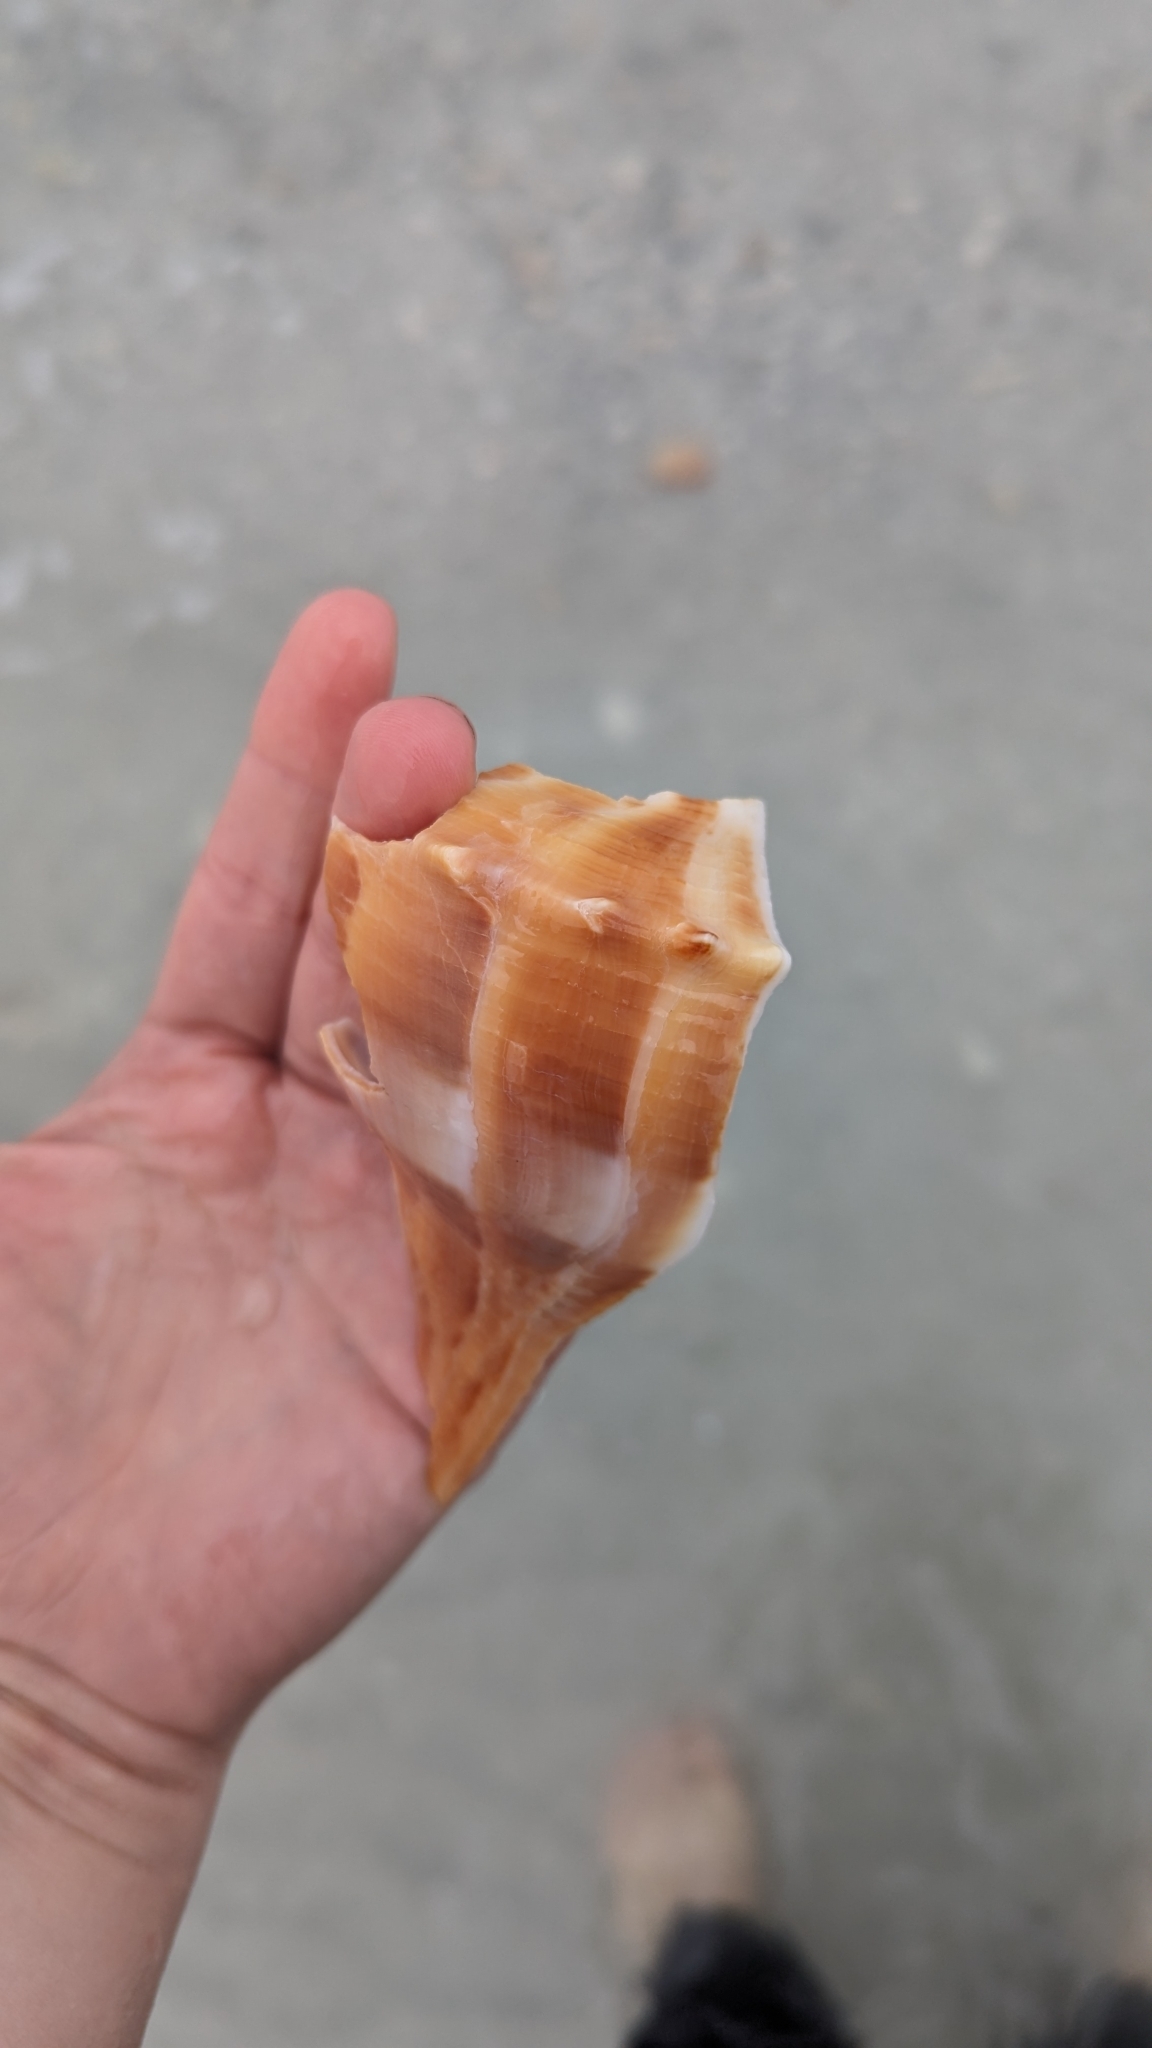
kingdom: Animalia
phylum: Mollusca
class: Gastropoda
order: Neogastropoda
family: Busyconidae
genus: Sinistrofulgur
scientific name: Sinistrofulgur sinistrum
